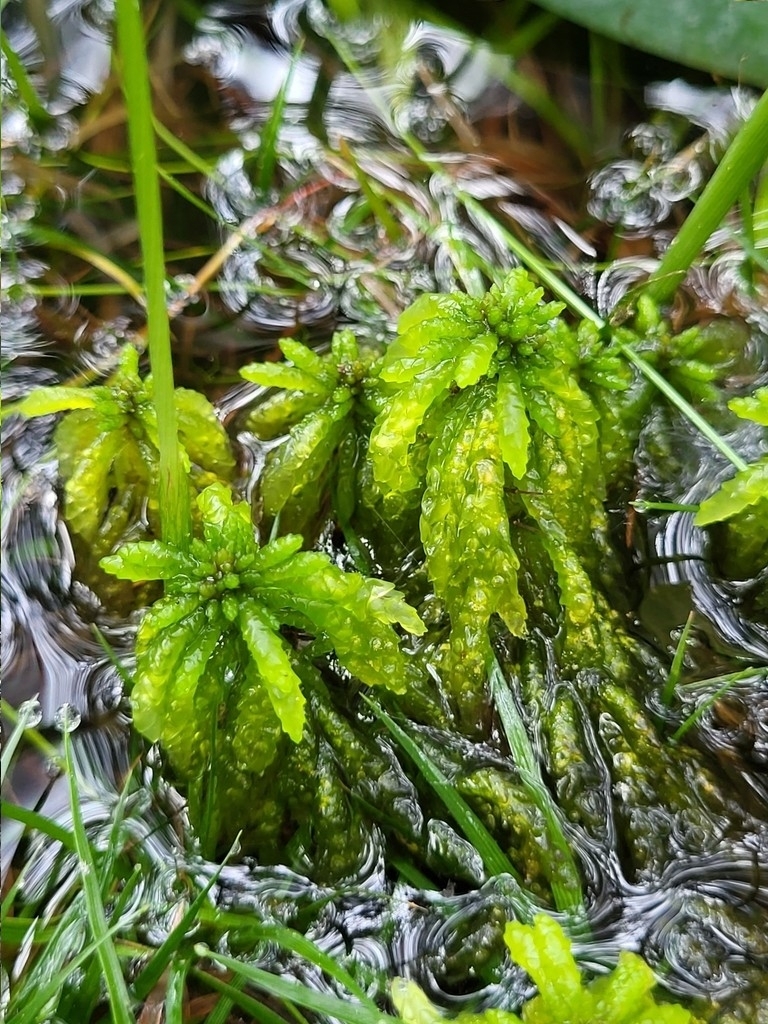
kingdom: Plantae
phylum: Bryophyta
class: Sphagnopsida
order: Sphagnales
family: Sphagnaceae
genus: Sphagnum
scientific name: Sphagnum portoricense
